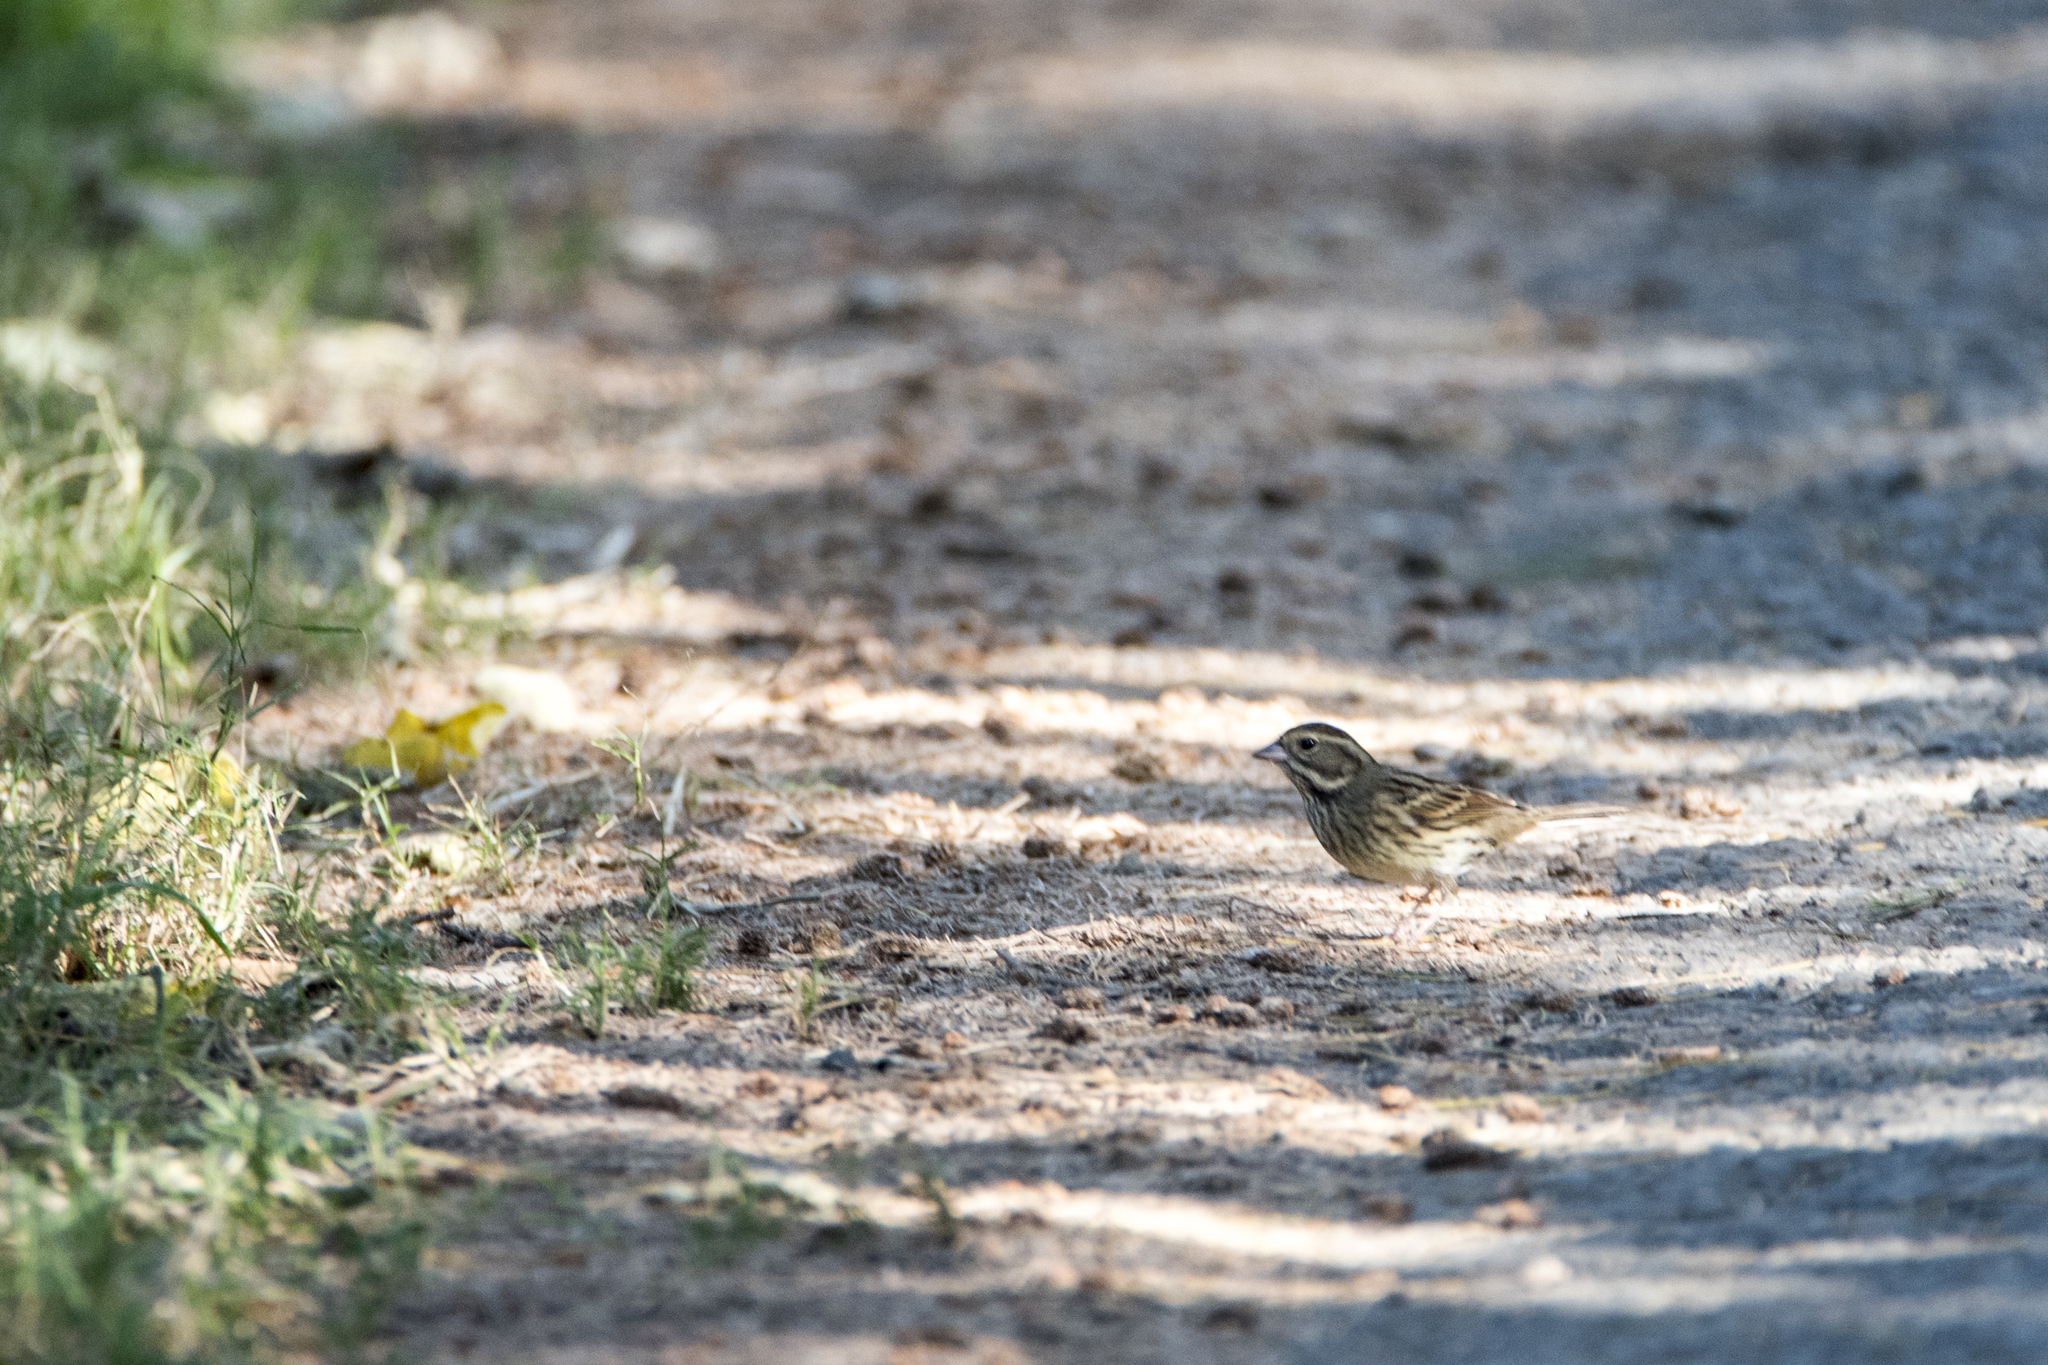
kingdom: Animalia
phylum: Chordata
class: Aves
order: Passeriformes
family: Emberizidae
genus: Emberiza
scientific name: Emberiza spodocephala
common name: Black-faced bunting
